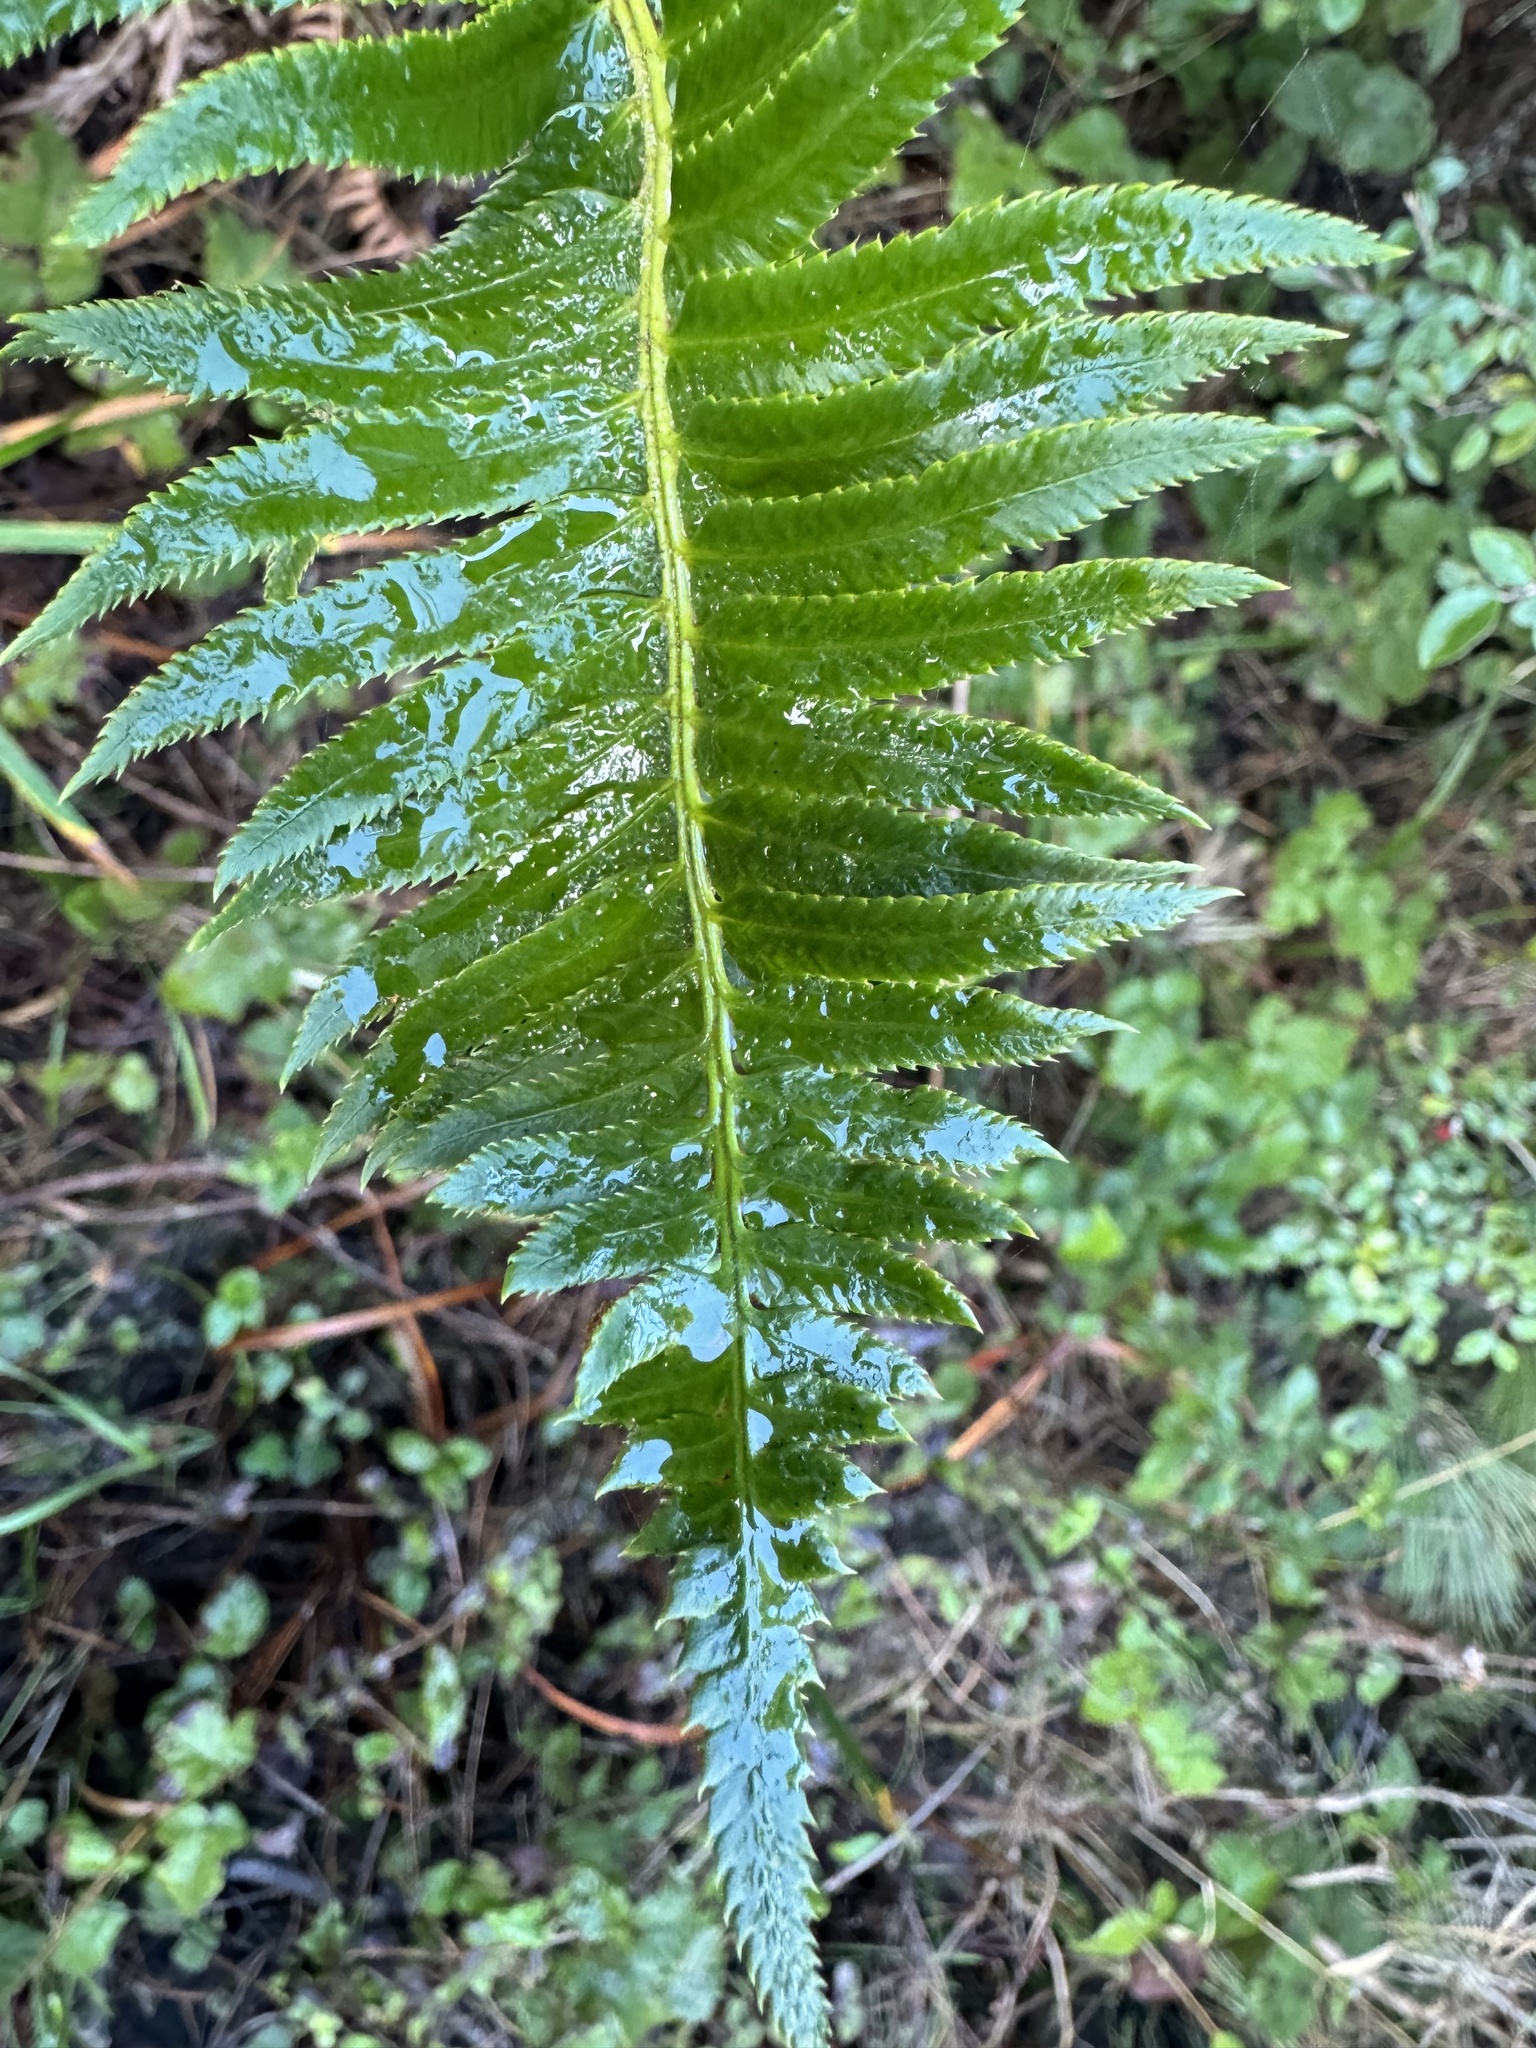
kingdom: Plantae
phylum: Tracheophyta
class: Polypodiopsida
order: Polypodiales
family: Dryopteridaceae
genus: Polystichum
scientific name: Polystichum munitum
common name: Western sword-fern
